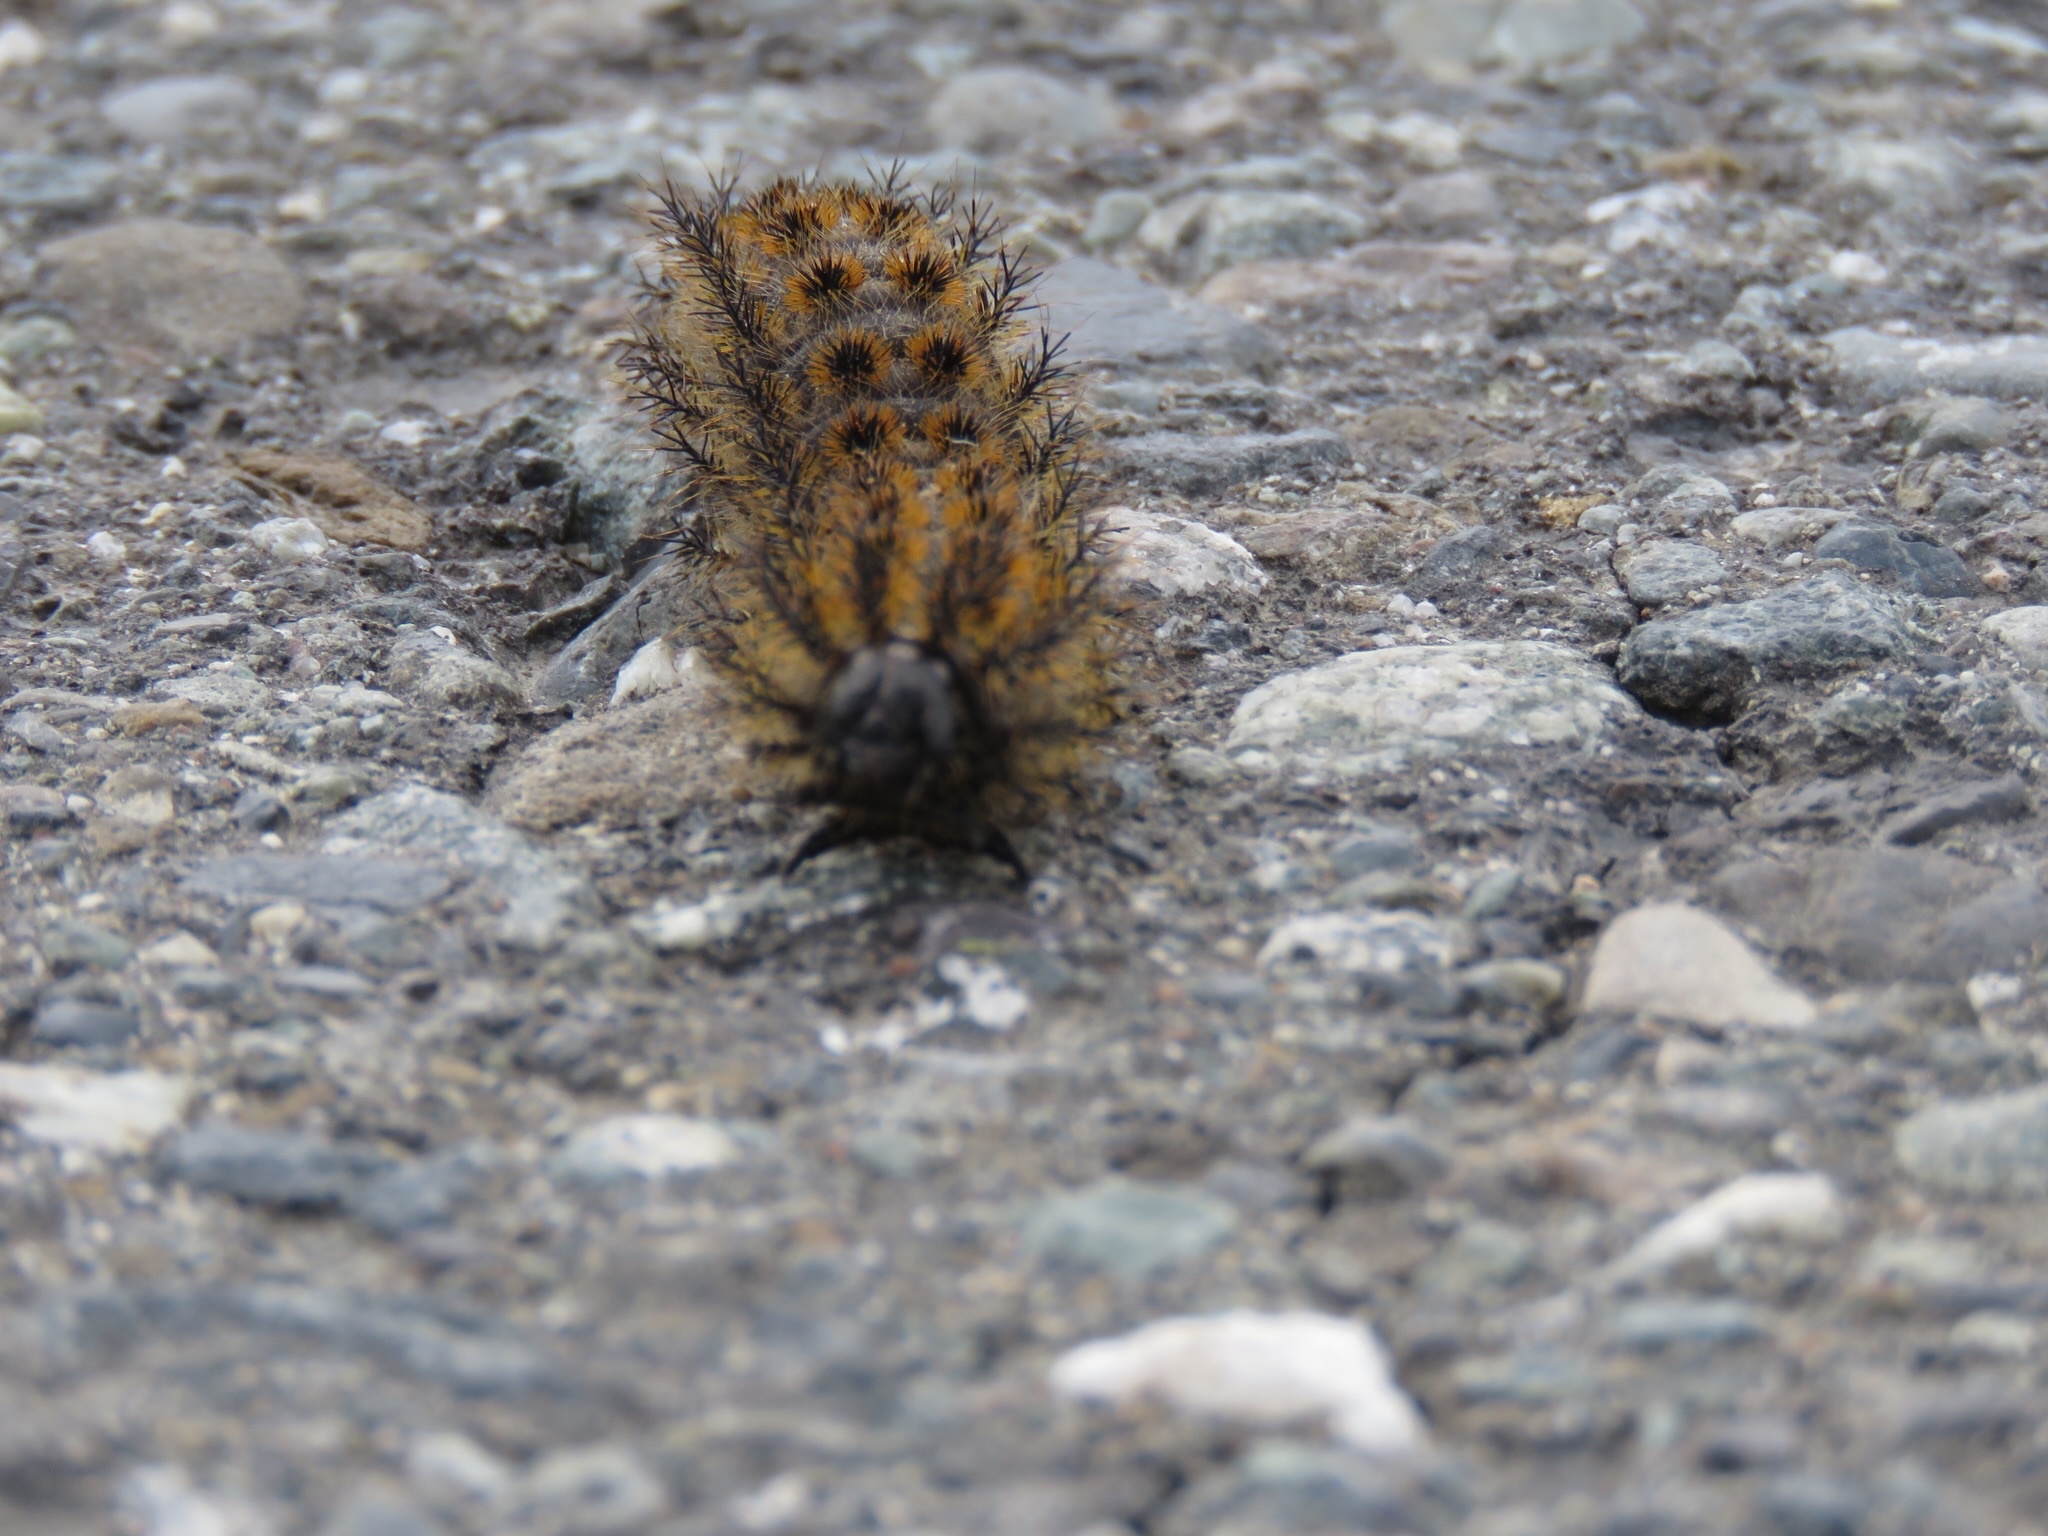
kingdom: Animalia
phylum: Arthropoda
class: Insecta
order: Lepidoptera
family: Saturniidae
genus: Hemileuca
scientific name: Hemileuca eglanterina
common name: Western sheepmoth
